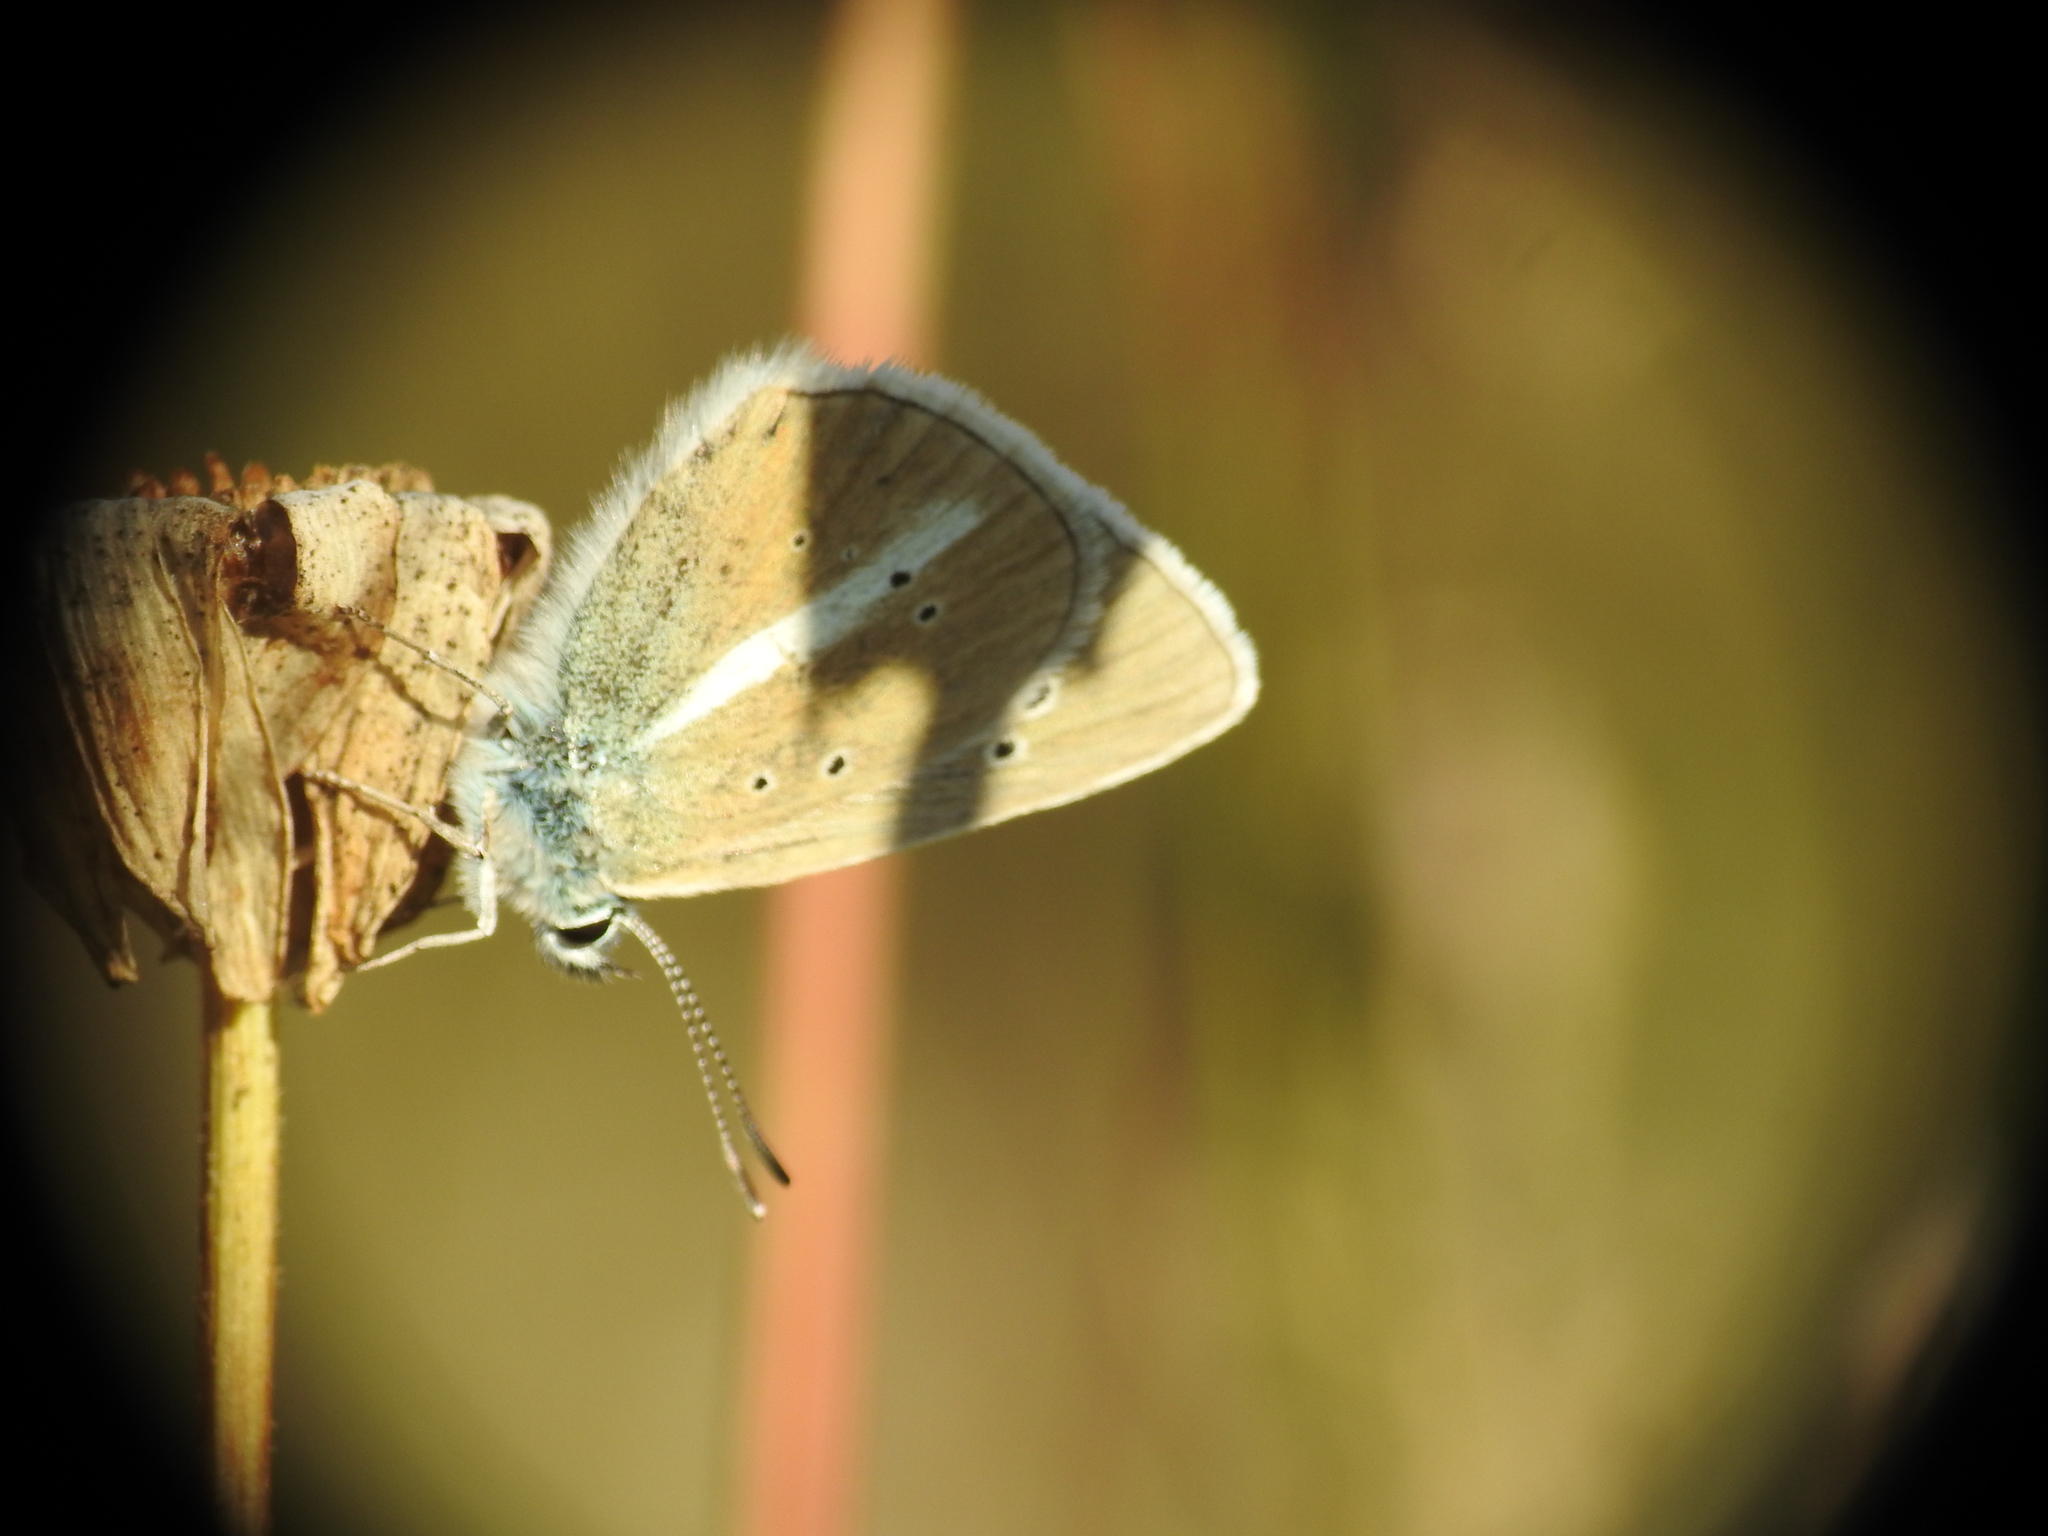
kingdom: Animalia
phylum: Arthropoda
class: Insecta
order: Lepidoptera
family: Lycaenidae
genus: Agrodiaetus
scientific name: Agrodiaetus damon
